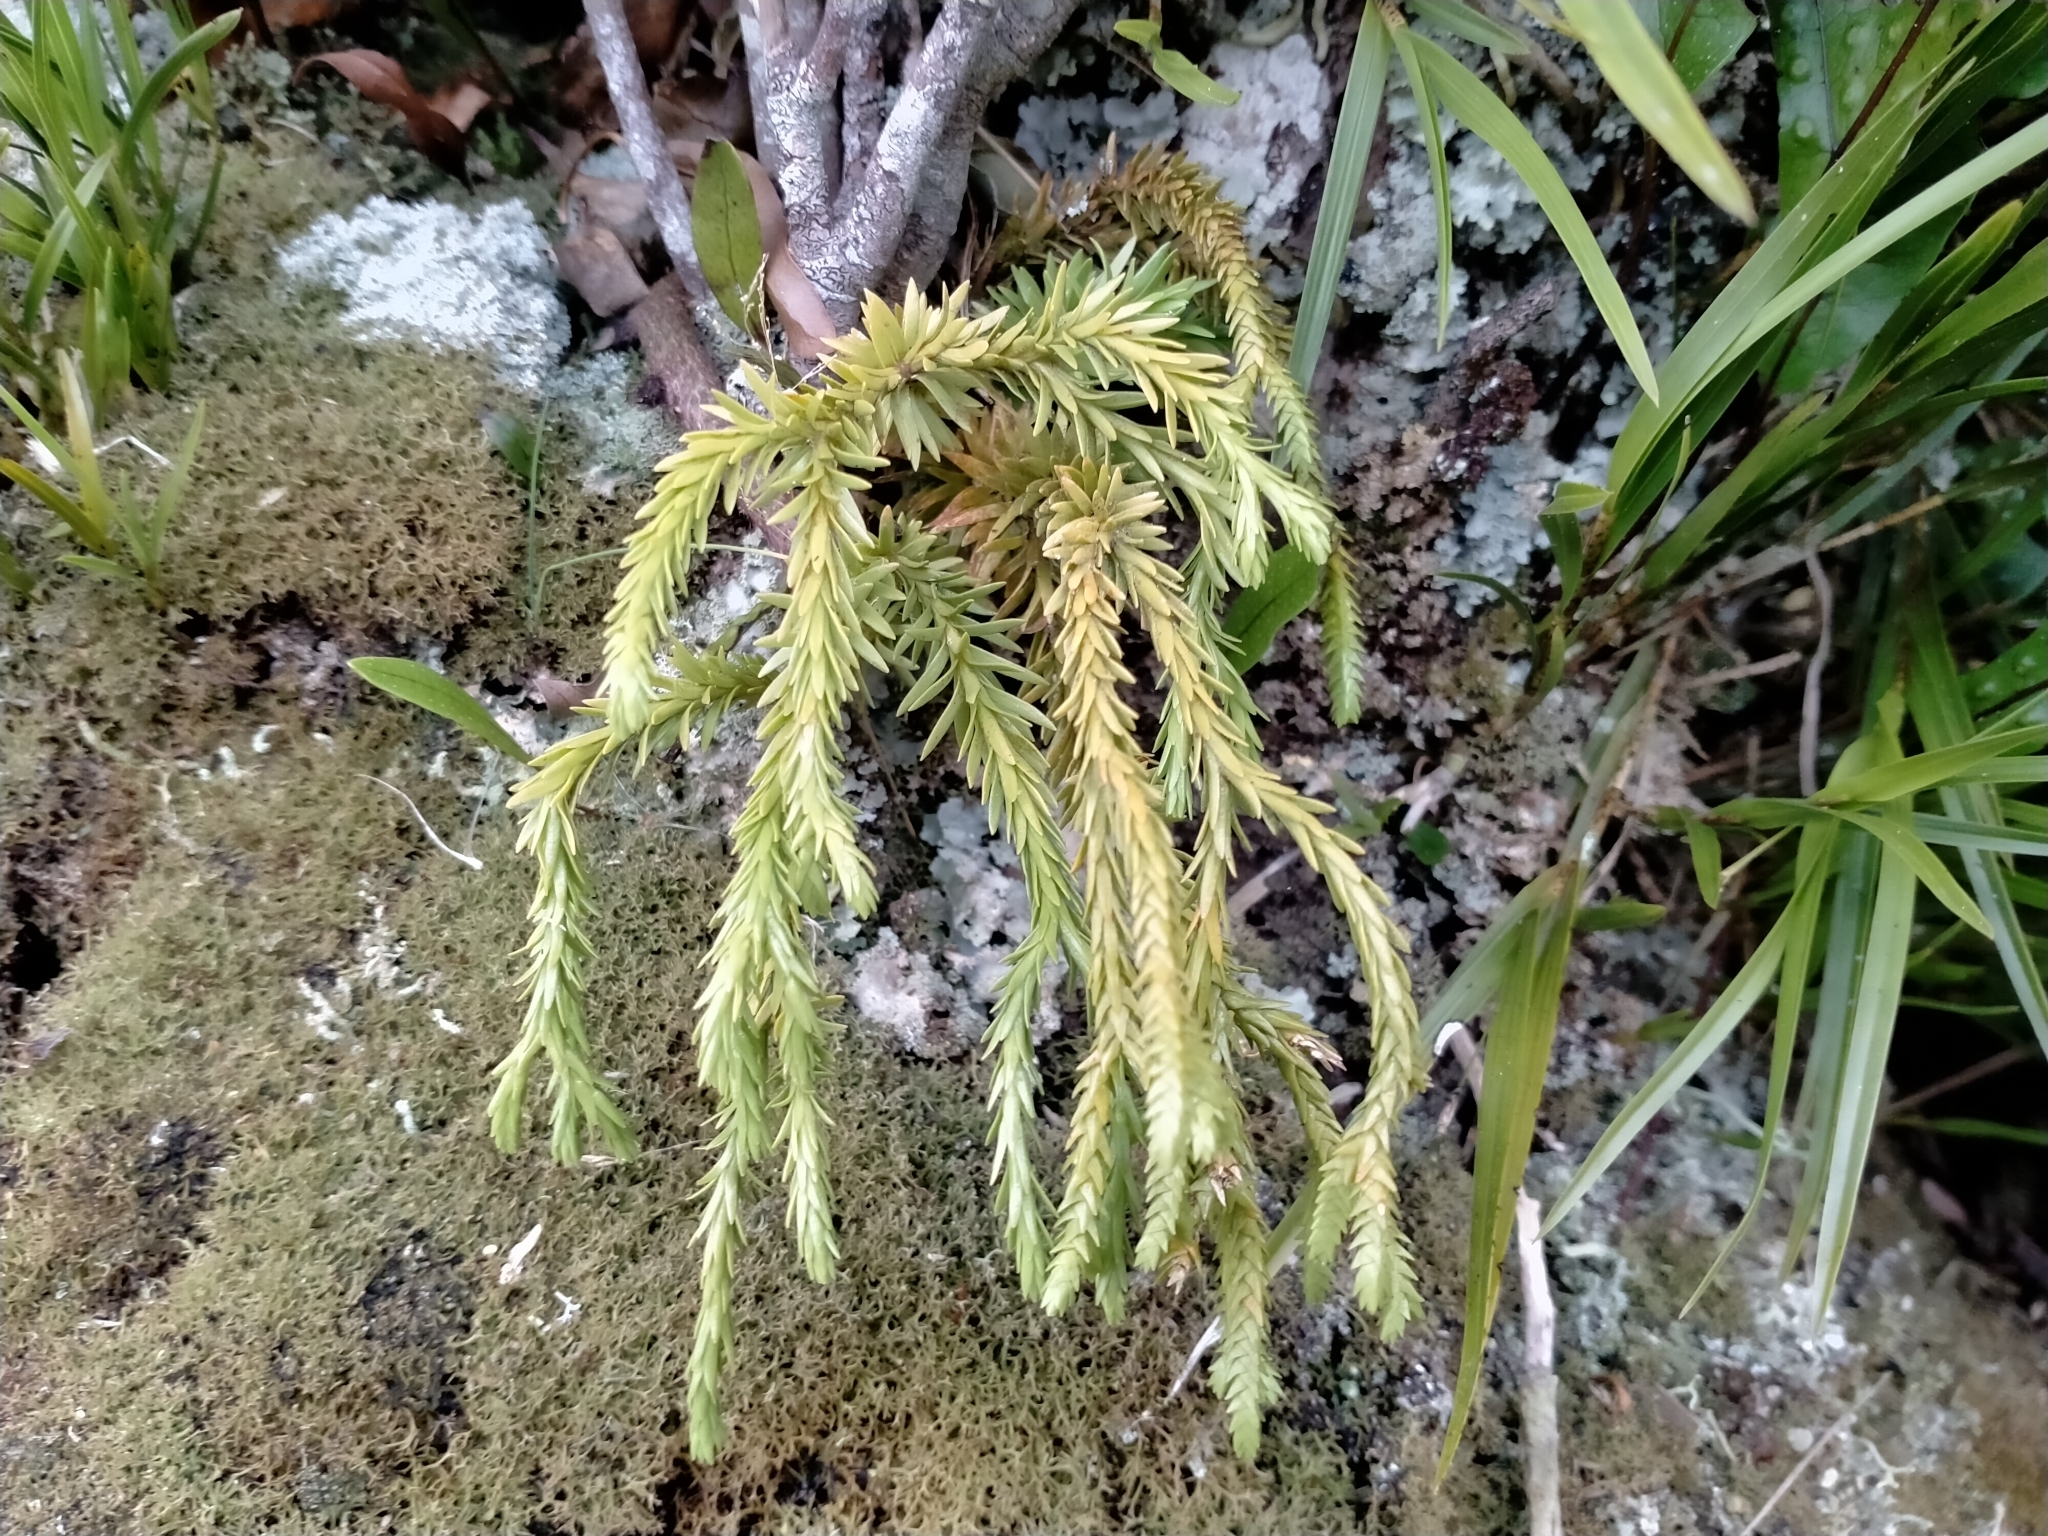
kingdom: Plantae
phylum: Tracheophyta
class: Lycopodiopsida
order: Lycopodiales
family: Lycopodiaceae
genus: Phlegmariurus
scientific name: Phlegmariurus varius
